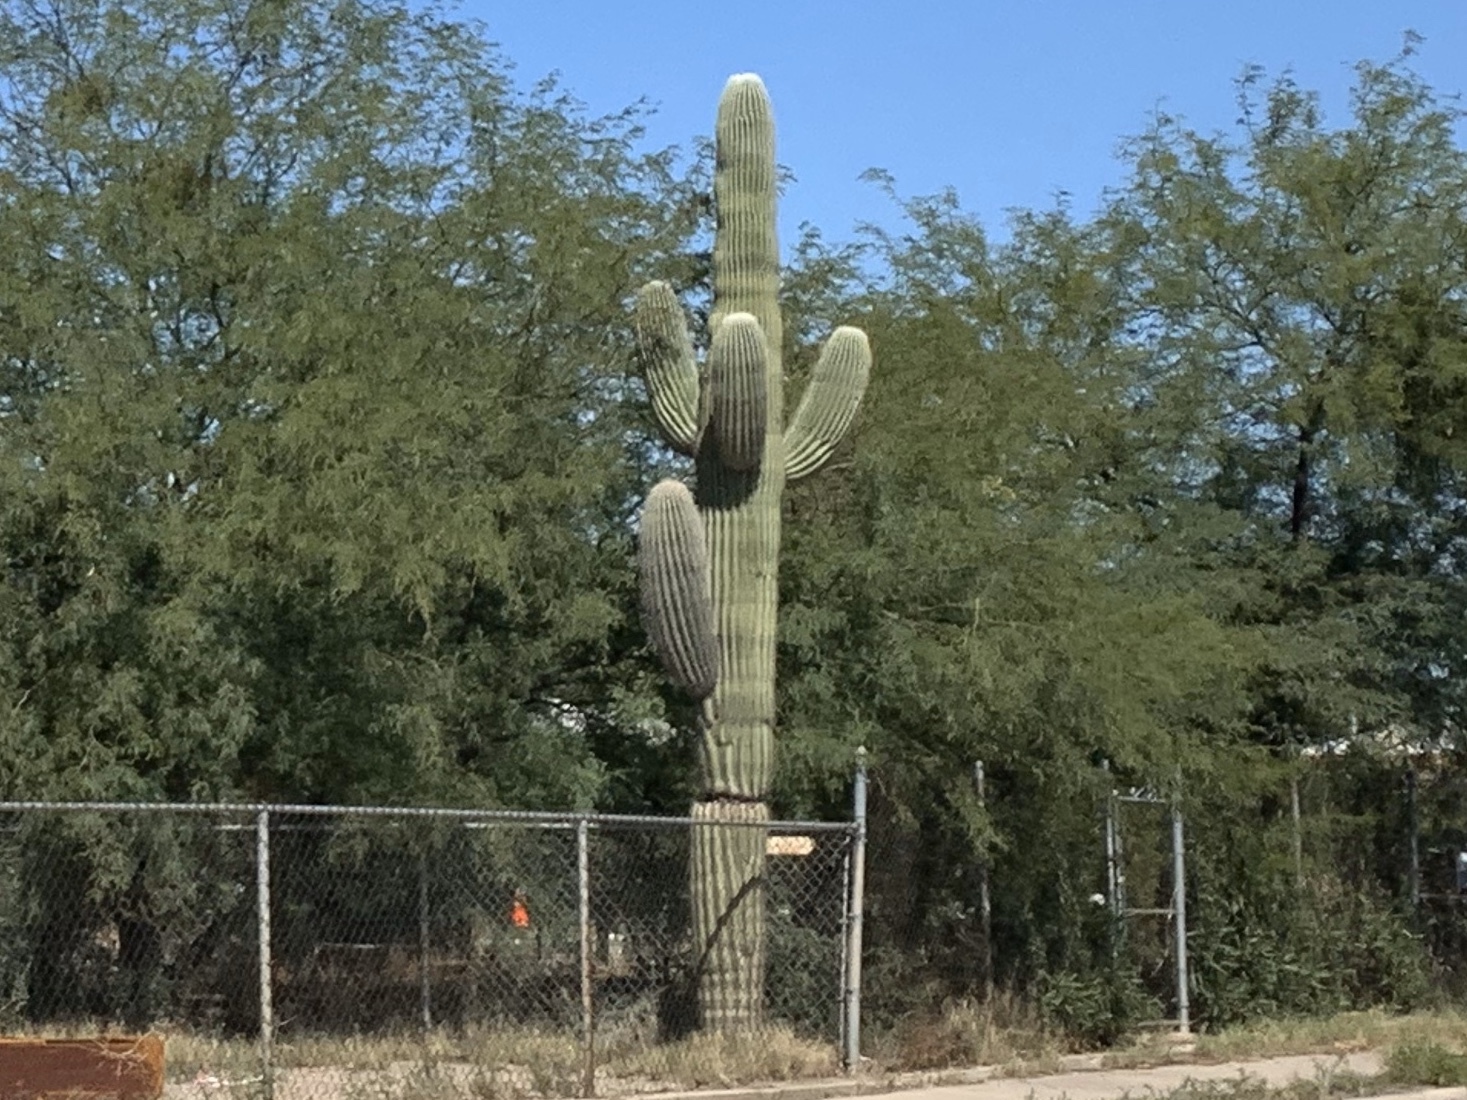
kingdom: Plantae
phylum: Tracheophyta
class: Magnoliopsida
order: Caryophyllales
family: Cactaceae
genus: Carnegiea
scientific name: Carnegiea gigantea
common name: Saguaro
